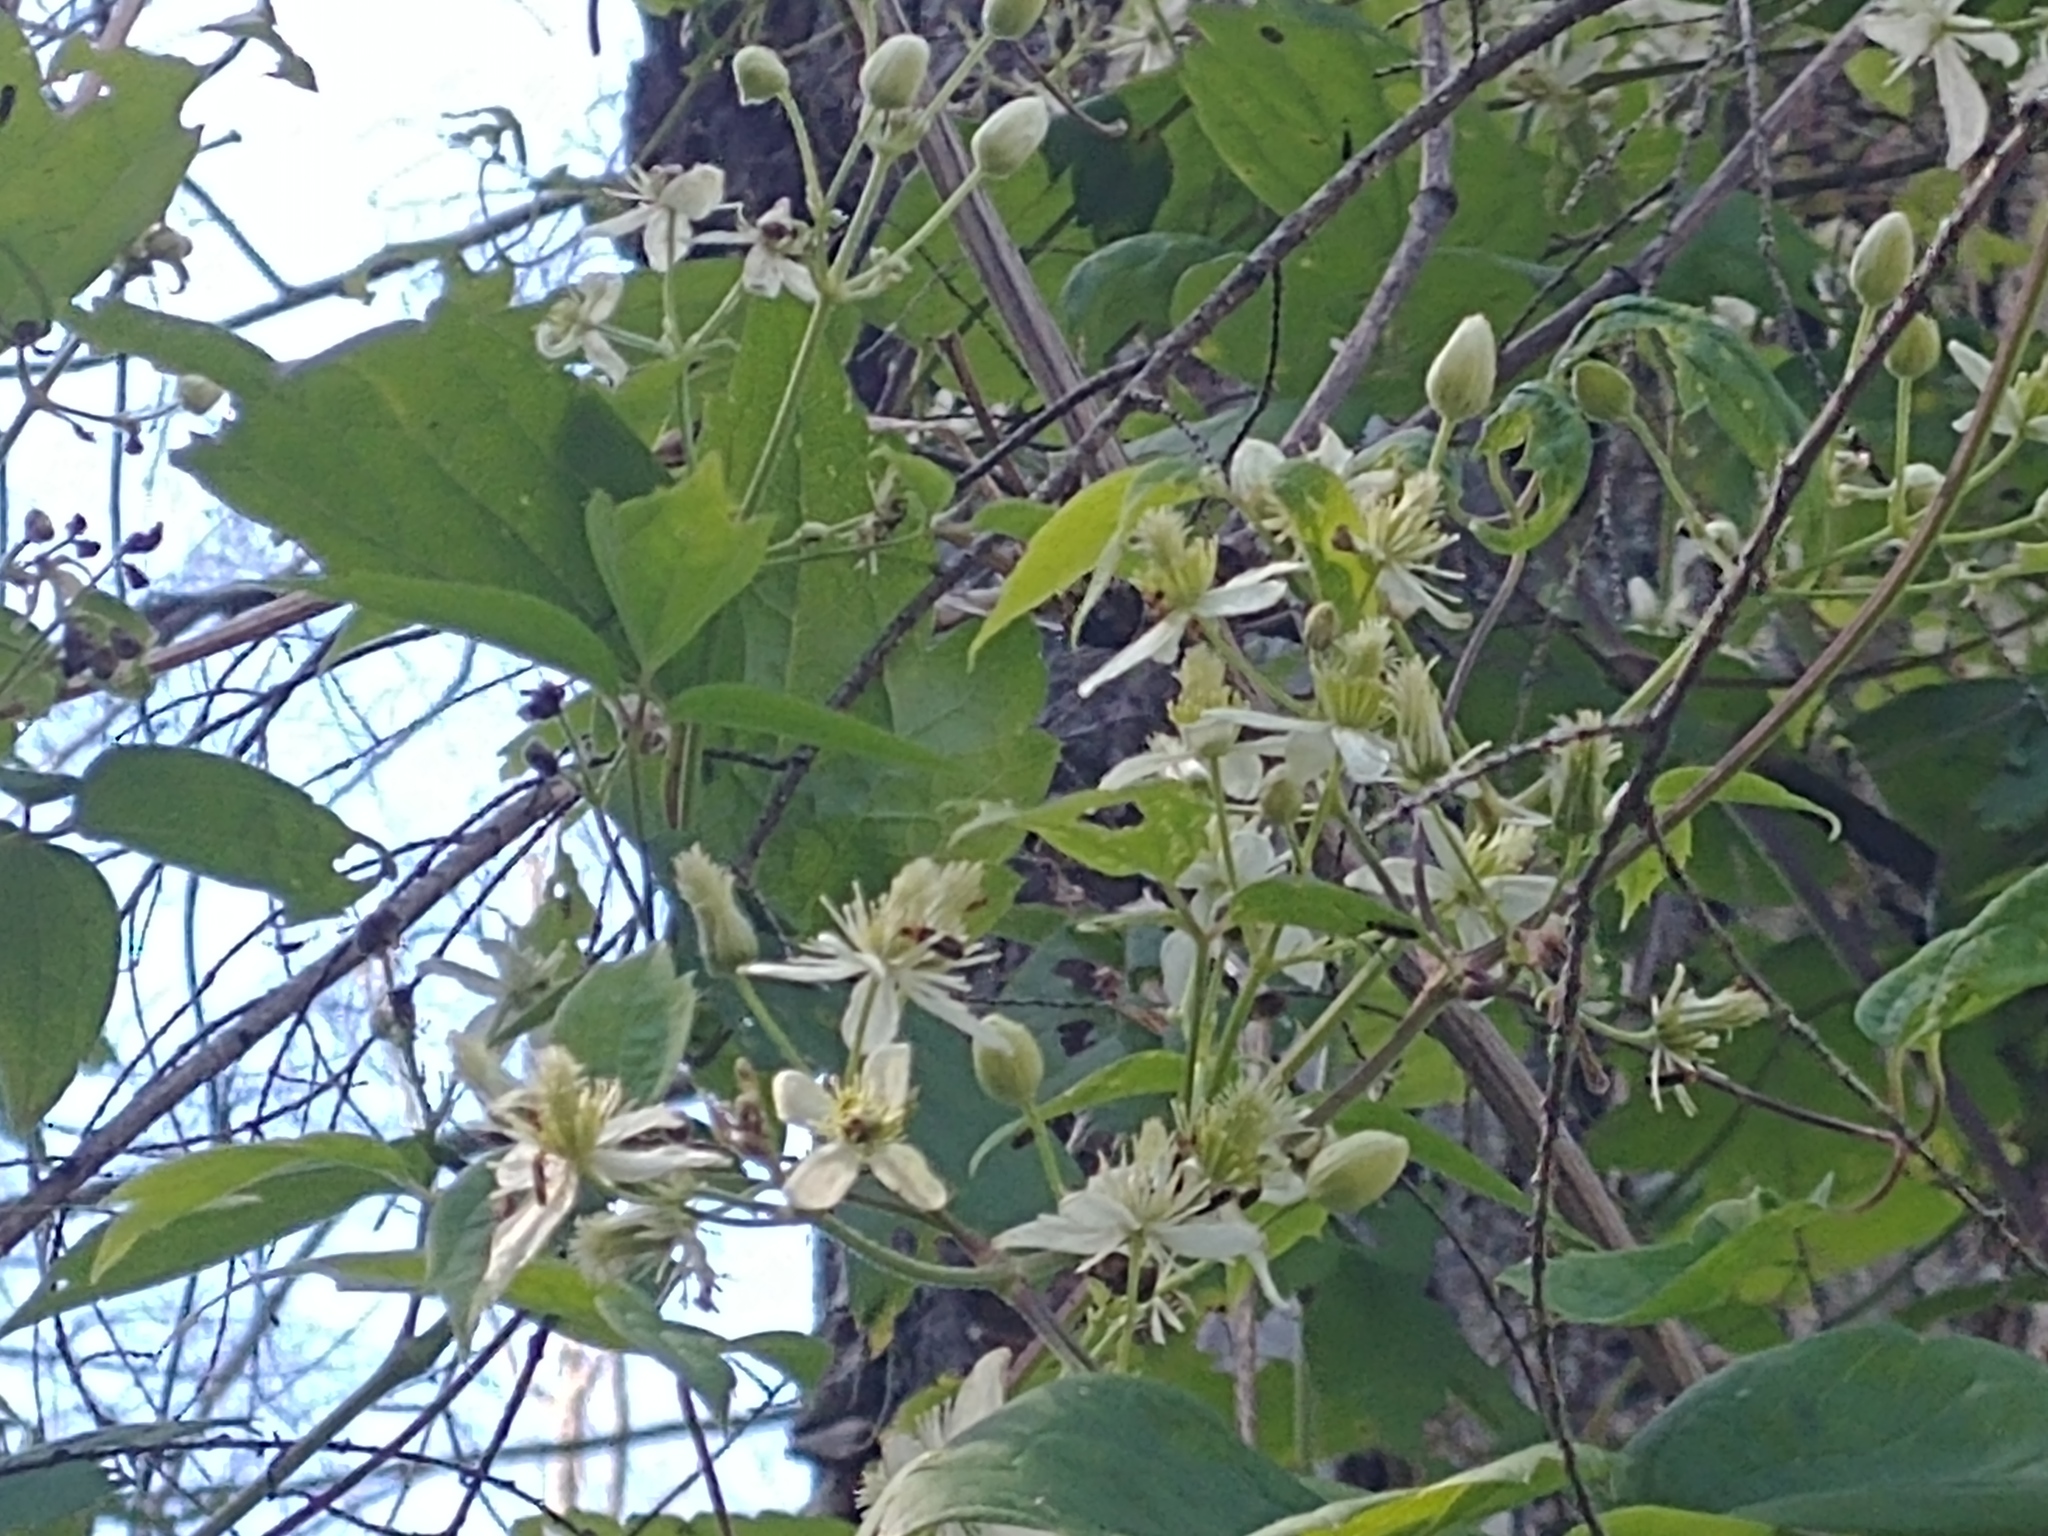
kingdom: Plantae
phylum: Tracheophyta
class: Magnoliopsida
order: Ranunculales
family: Ranunculaceae
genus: Clematis
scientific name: Clematis virginiana
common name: Virgin's-bower
